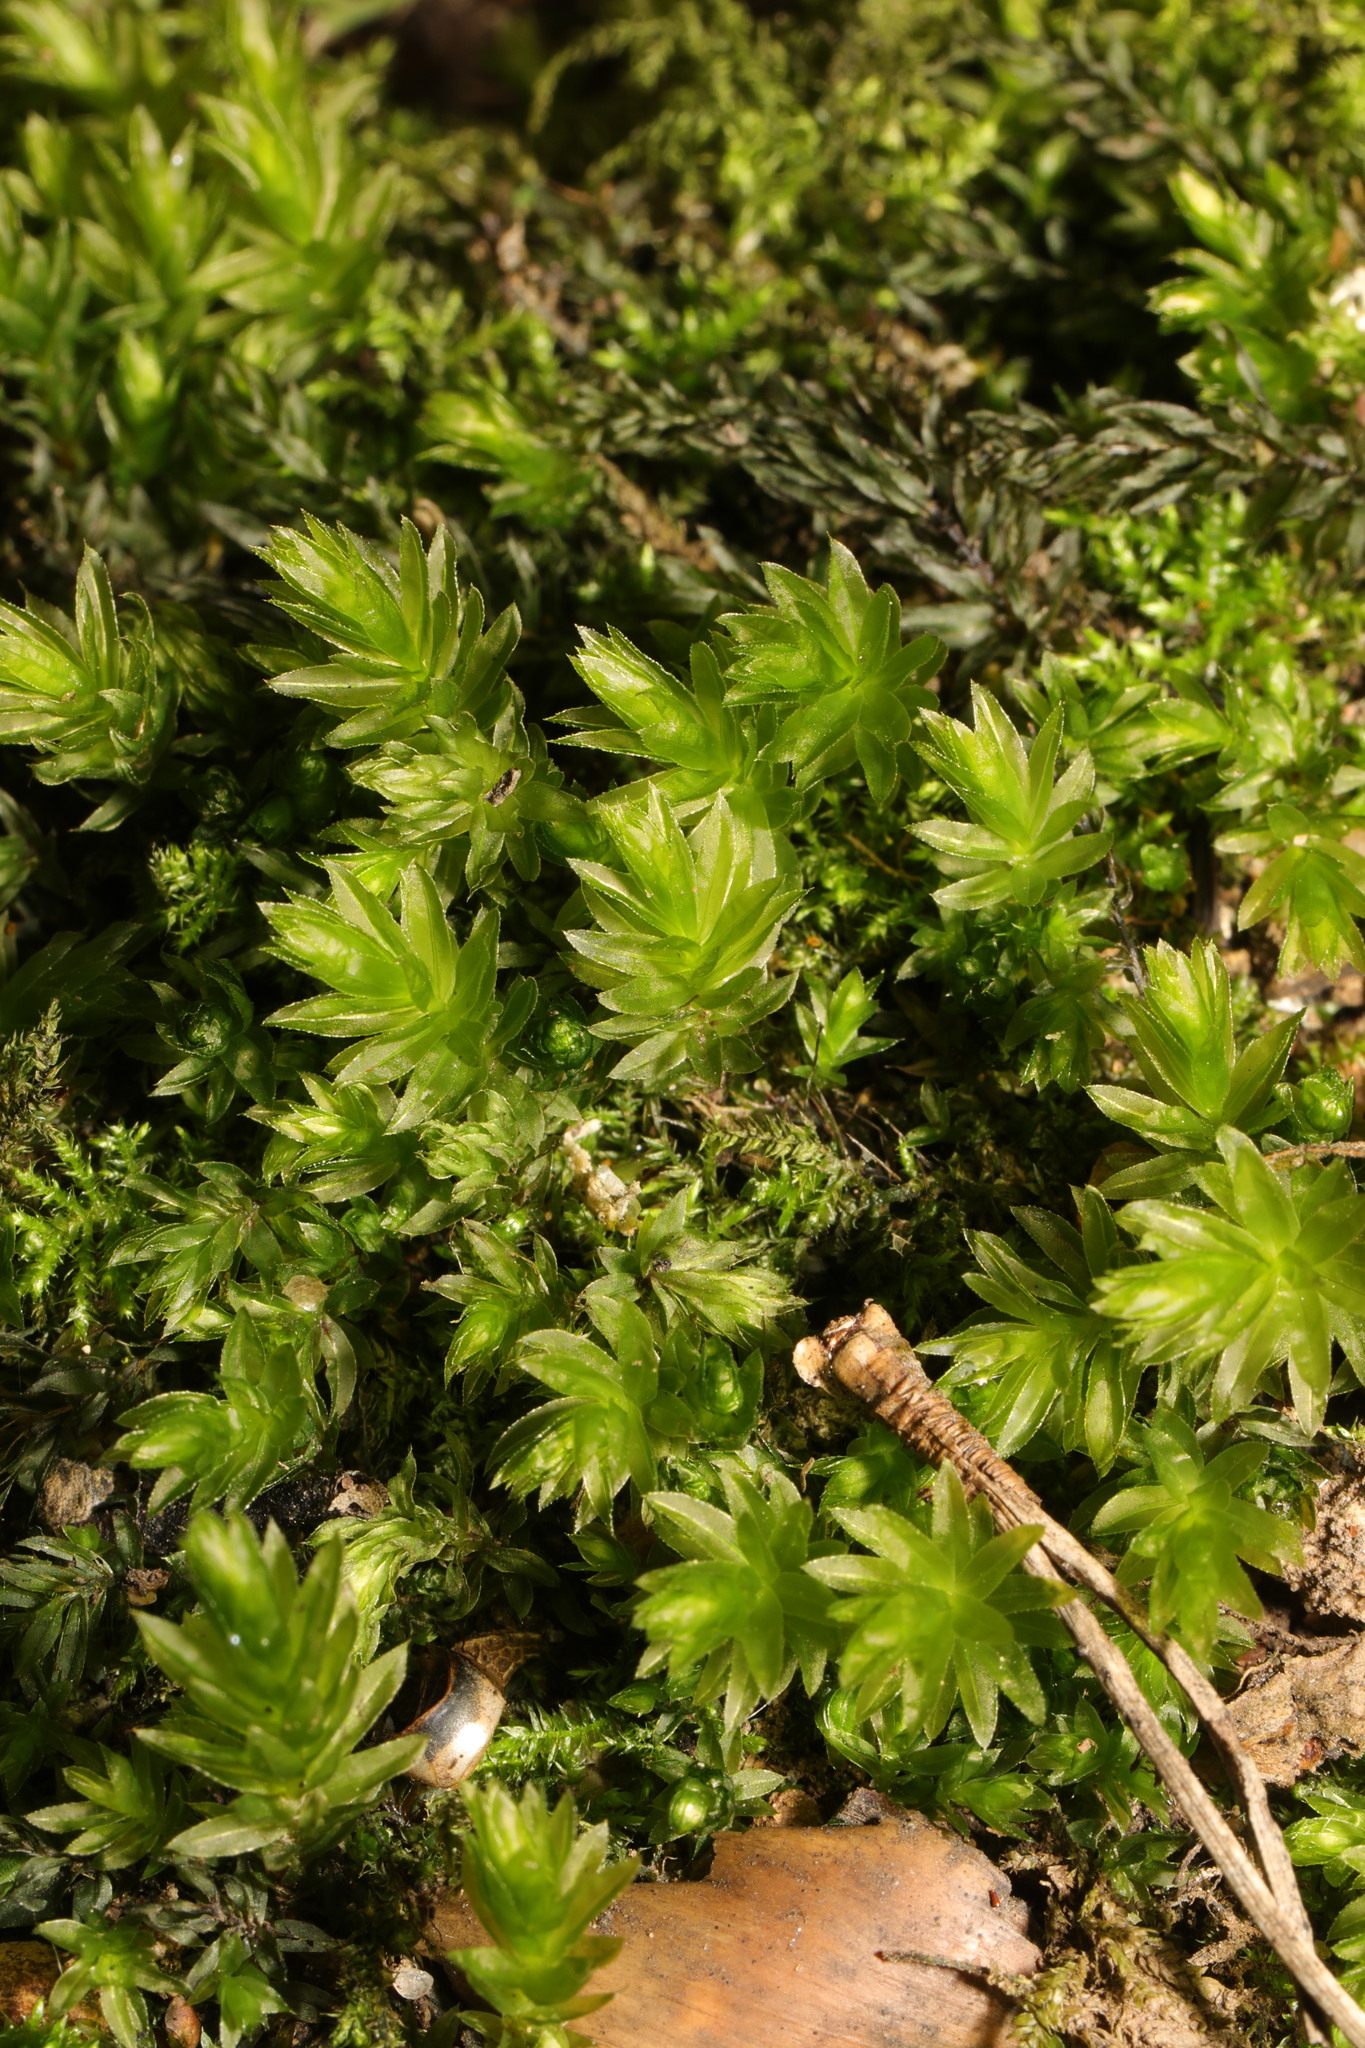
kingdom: Plantae
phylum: Bryophyta
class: Bryopsida
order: Bryales
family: Mniaceae
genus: Mnium
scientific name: Mnium hornum
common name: Swan's-neck leafy moss
